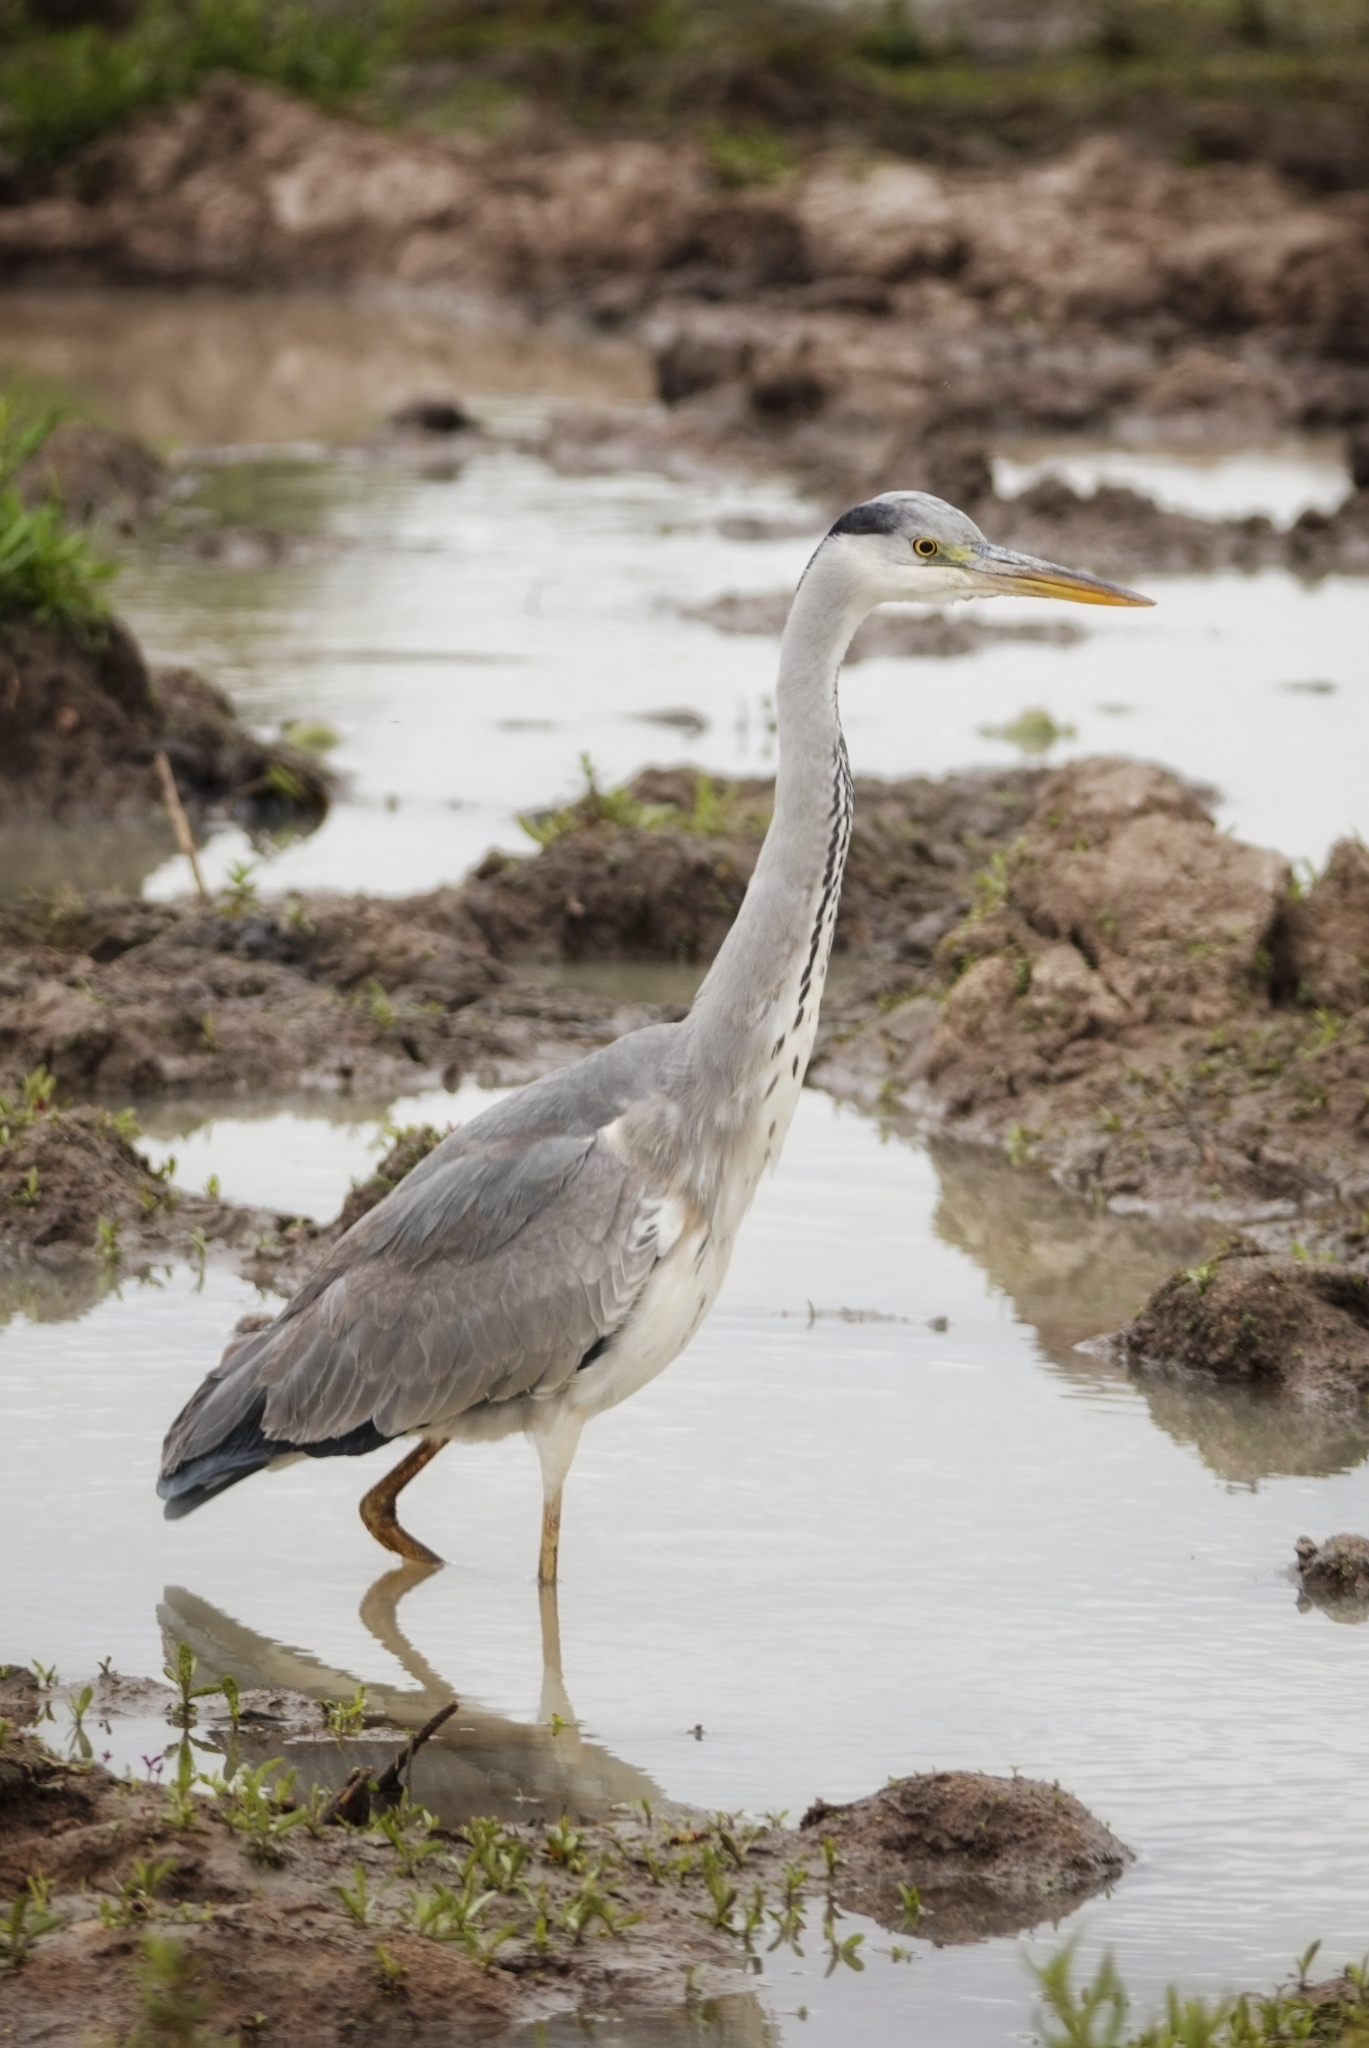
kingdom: Animalia
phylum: Chordata
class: Aves
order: Pelecaniformes
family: Ardeidae
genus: Ardea
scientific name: Ardea cinerea
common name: Grey heron
